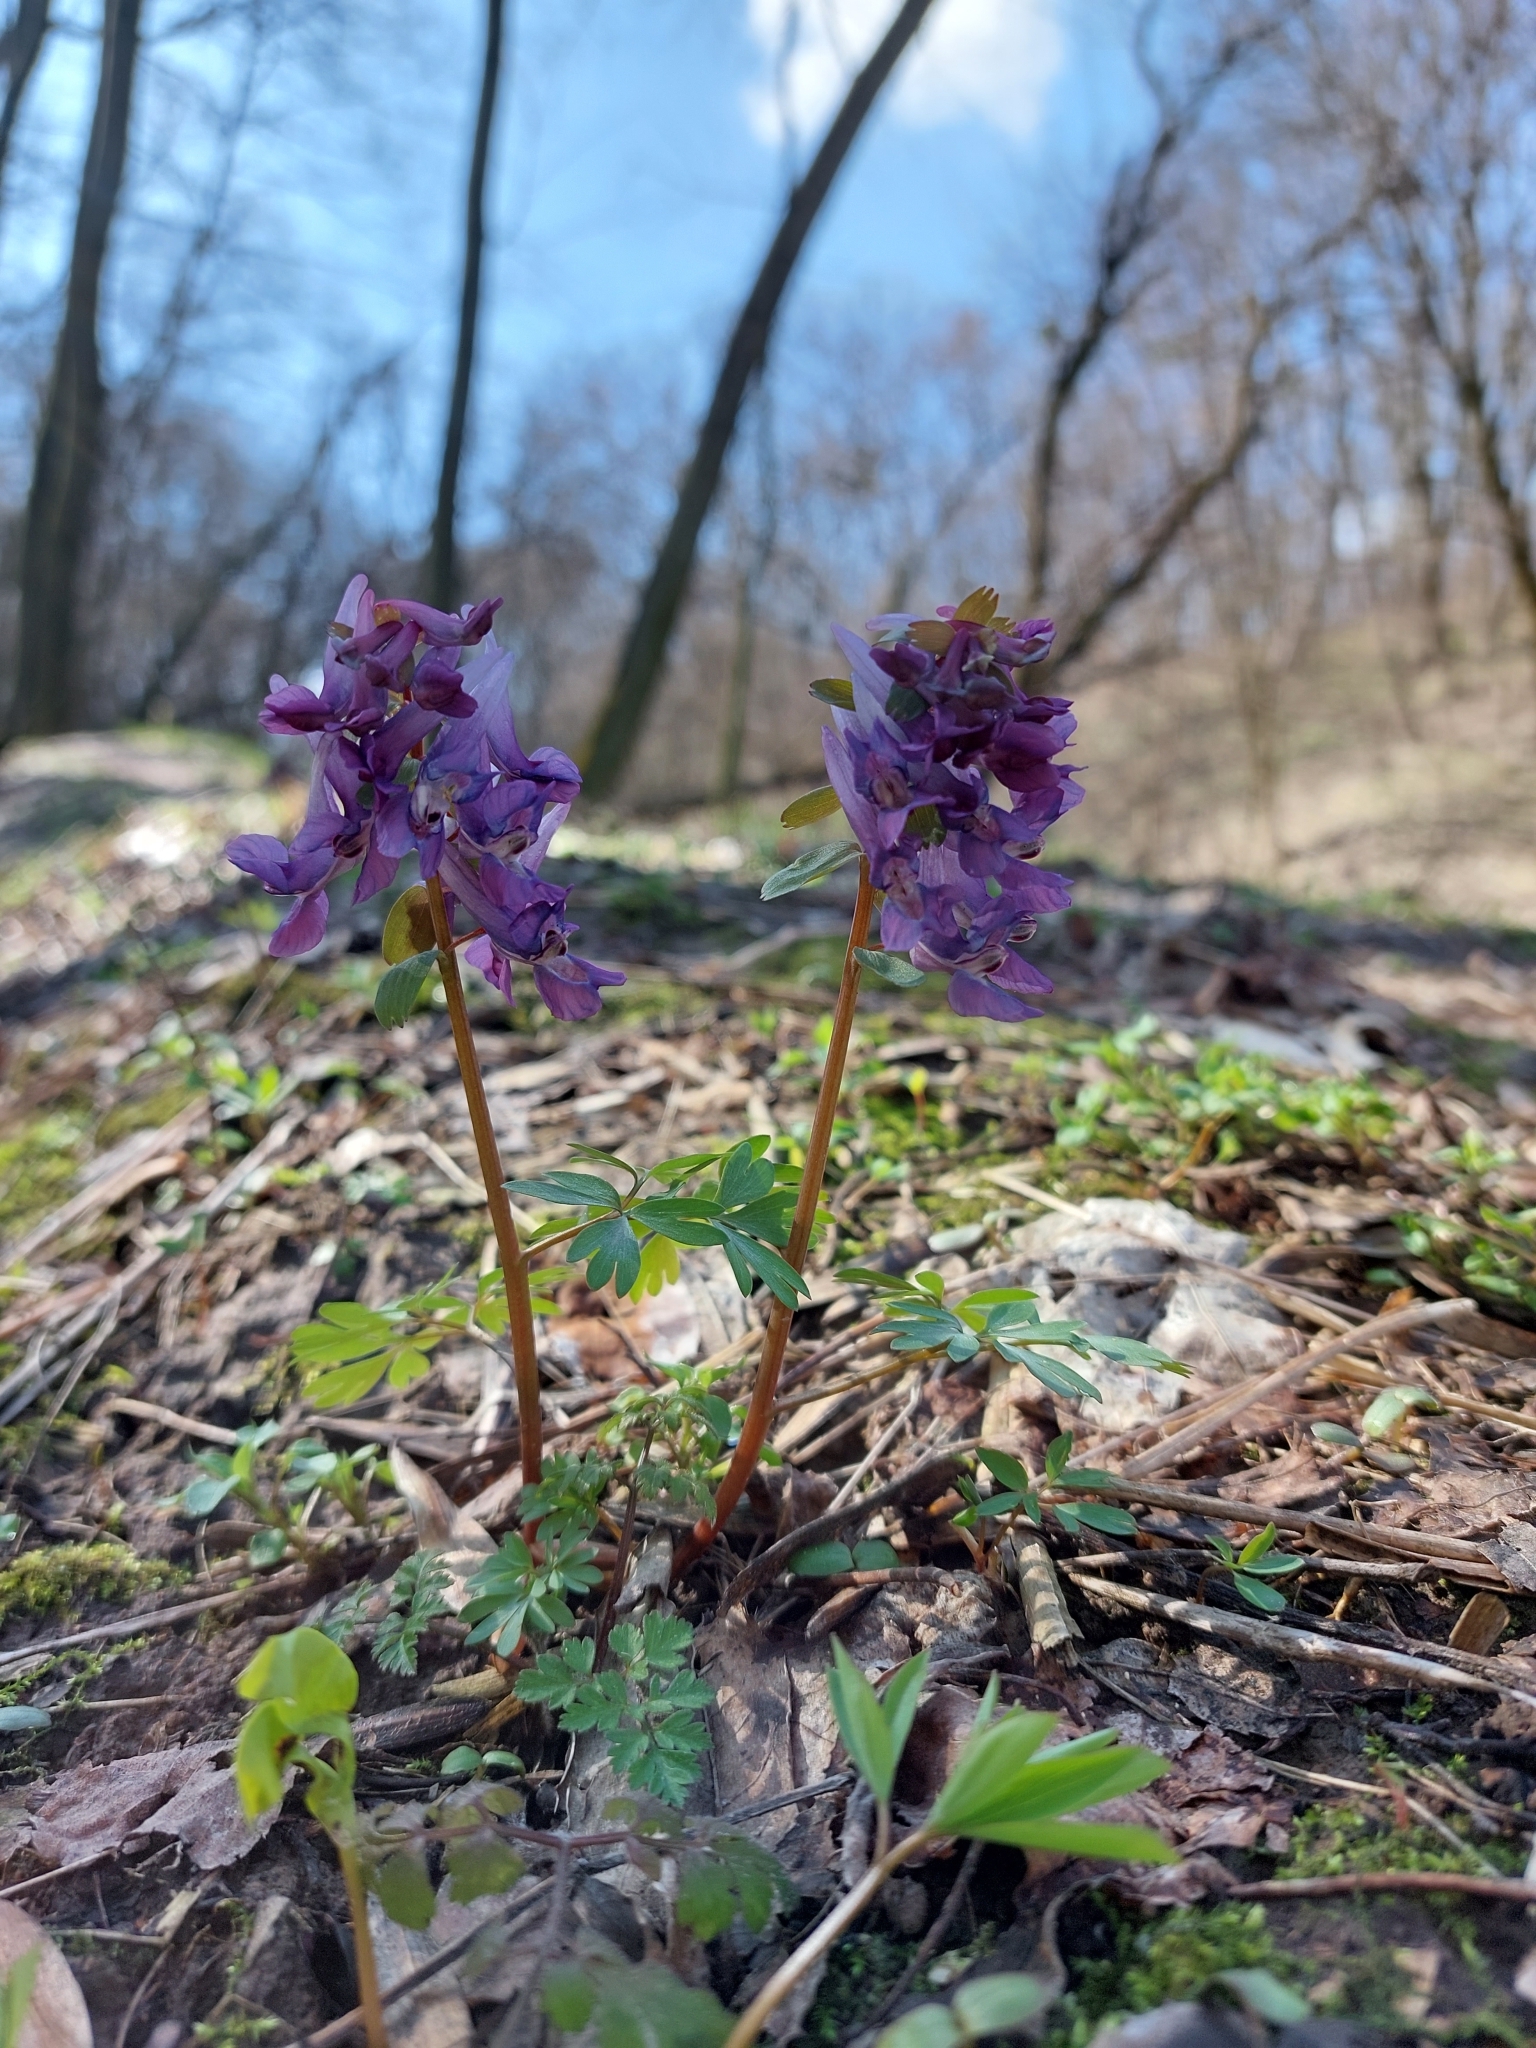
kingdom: Plantae
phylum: Tracheophyta
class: Magnoliopsida
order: Ranunculales
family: Papaveraceae
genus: Corydalis
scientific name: Corydalis solida
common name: Bird-in-a-bush
